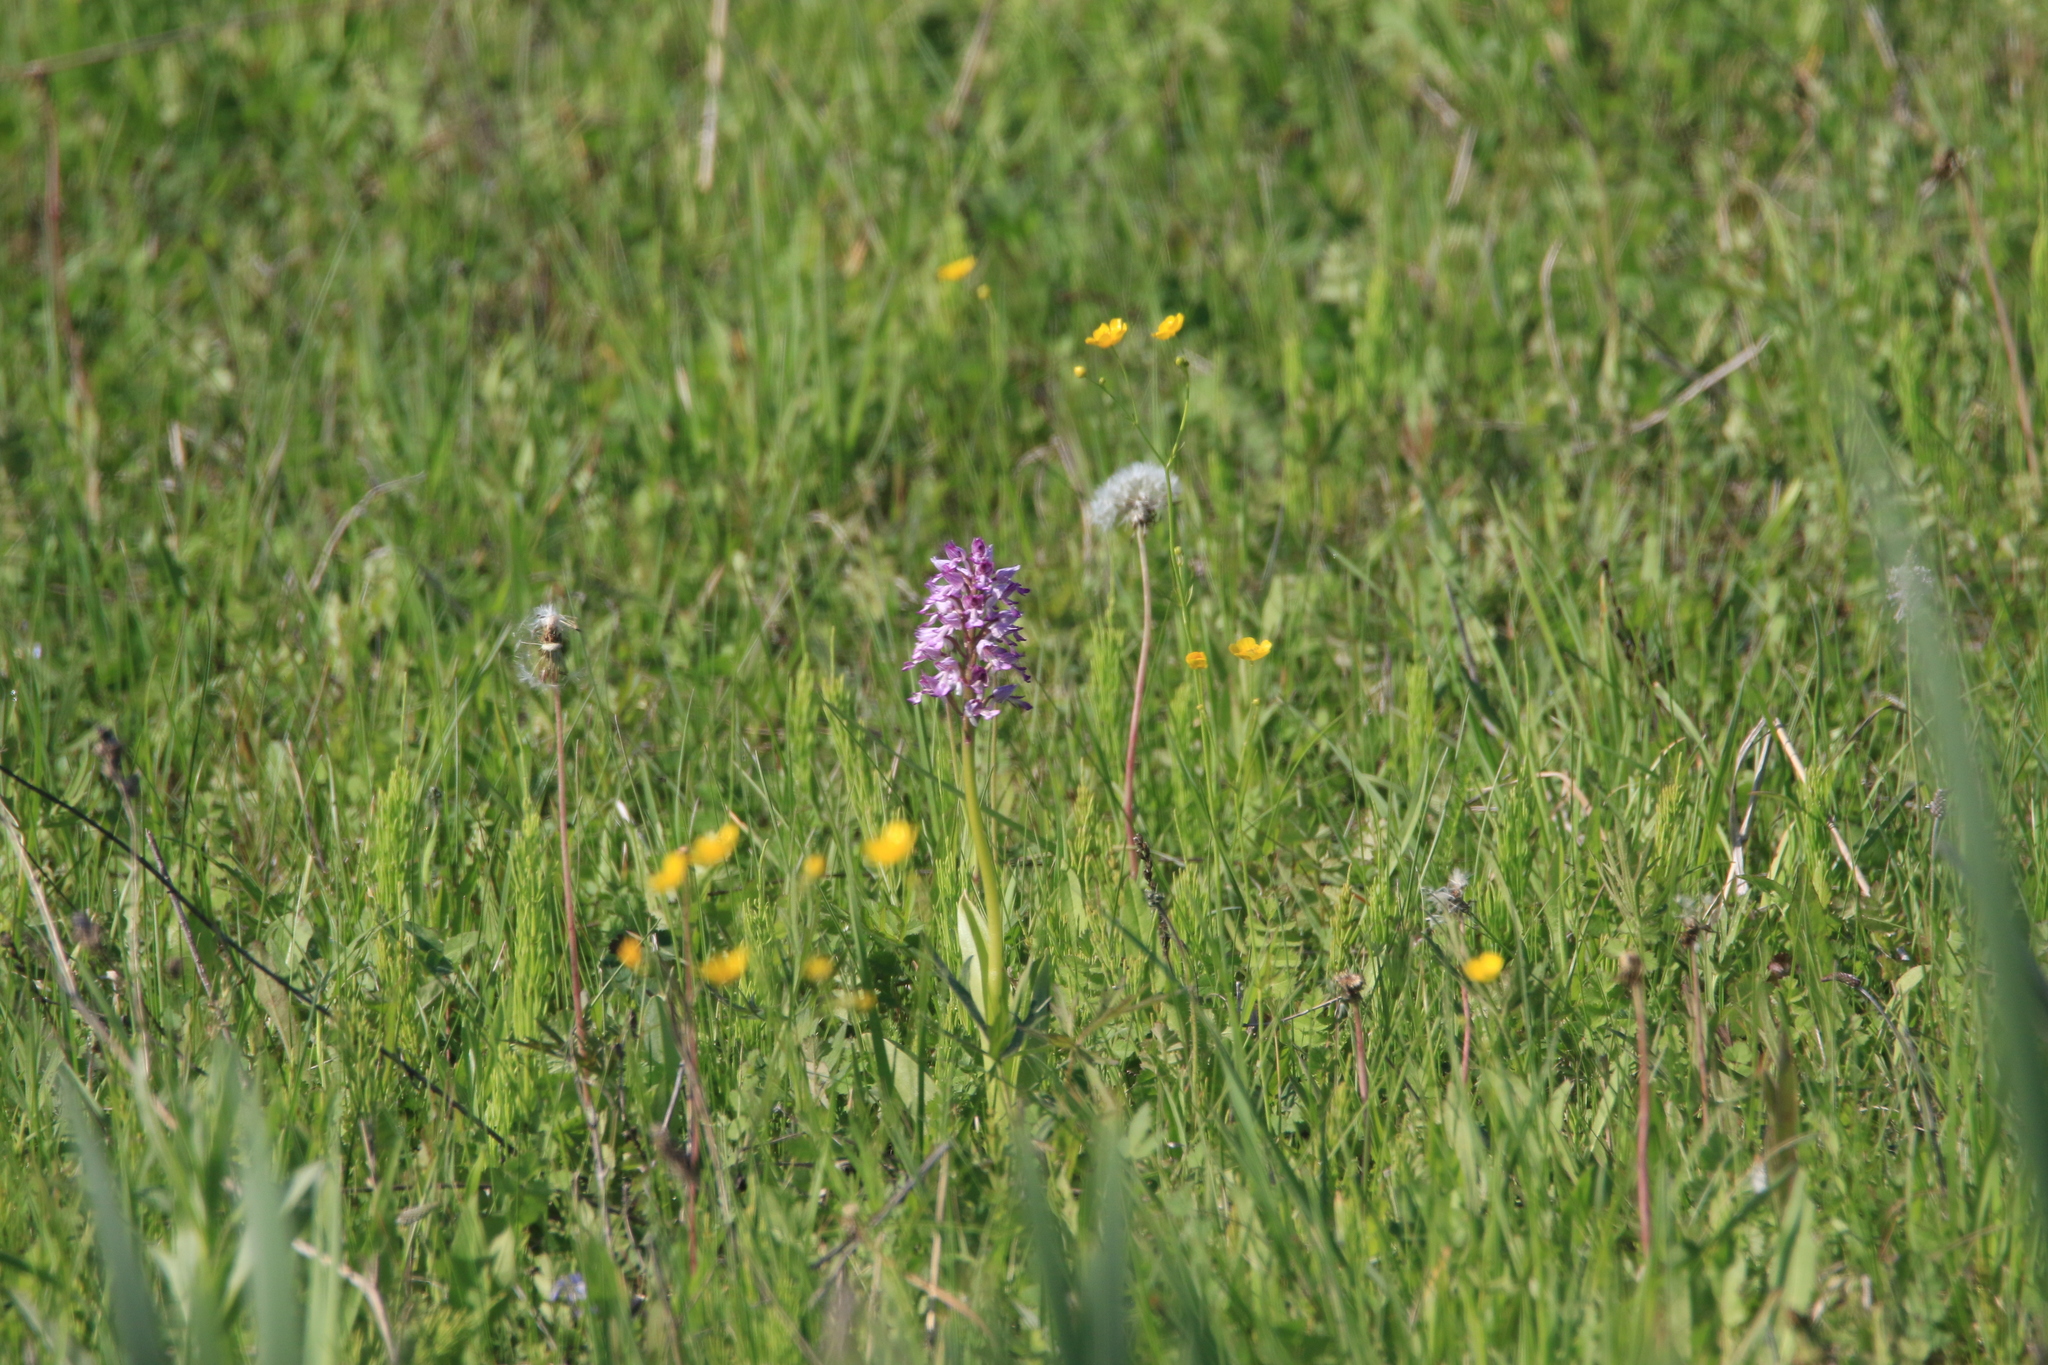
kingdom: Plantae
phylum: Tracheophyta
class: Liliopsida
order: Asparagales
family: Orchidaceae
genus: Orchis
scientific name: Orchis militaris
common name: Military orchid
